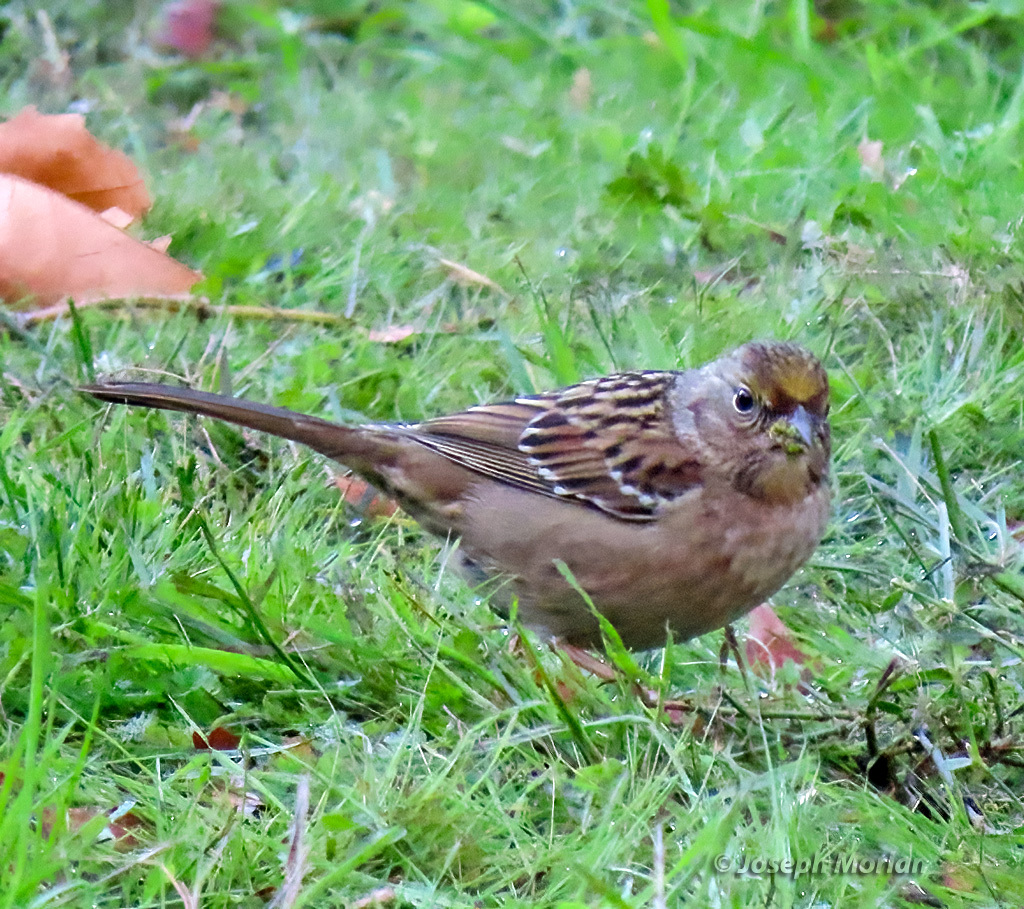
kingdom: Animalia
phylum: Chordata
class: Aves
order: Passeriformes
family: Passerellidae
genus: Zonotrichia
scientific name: Zonotrichia atricapilla
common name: Golden-crowned sparrow
